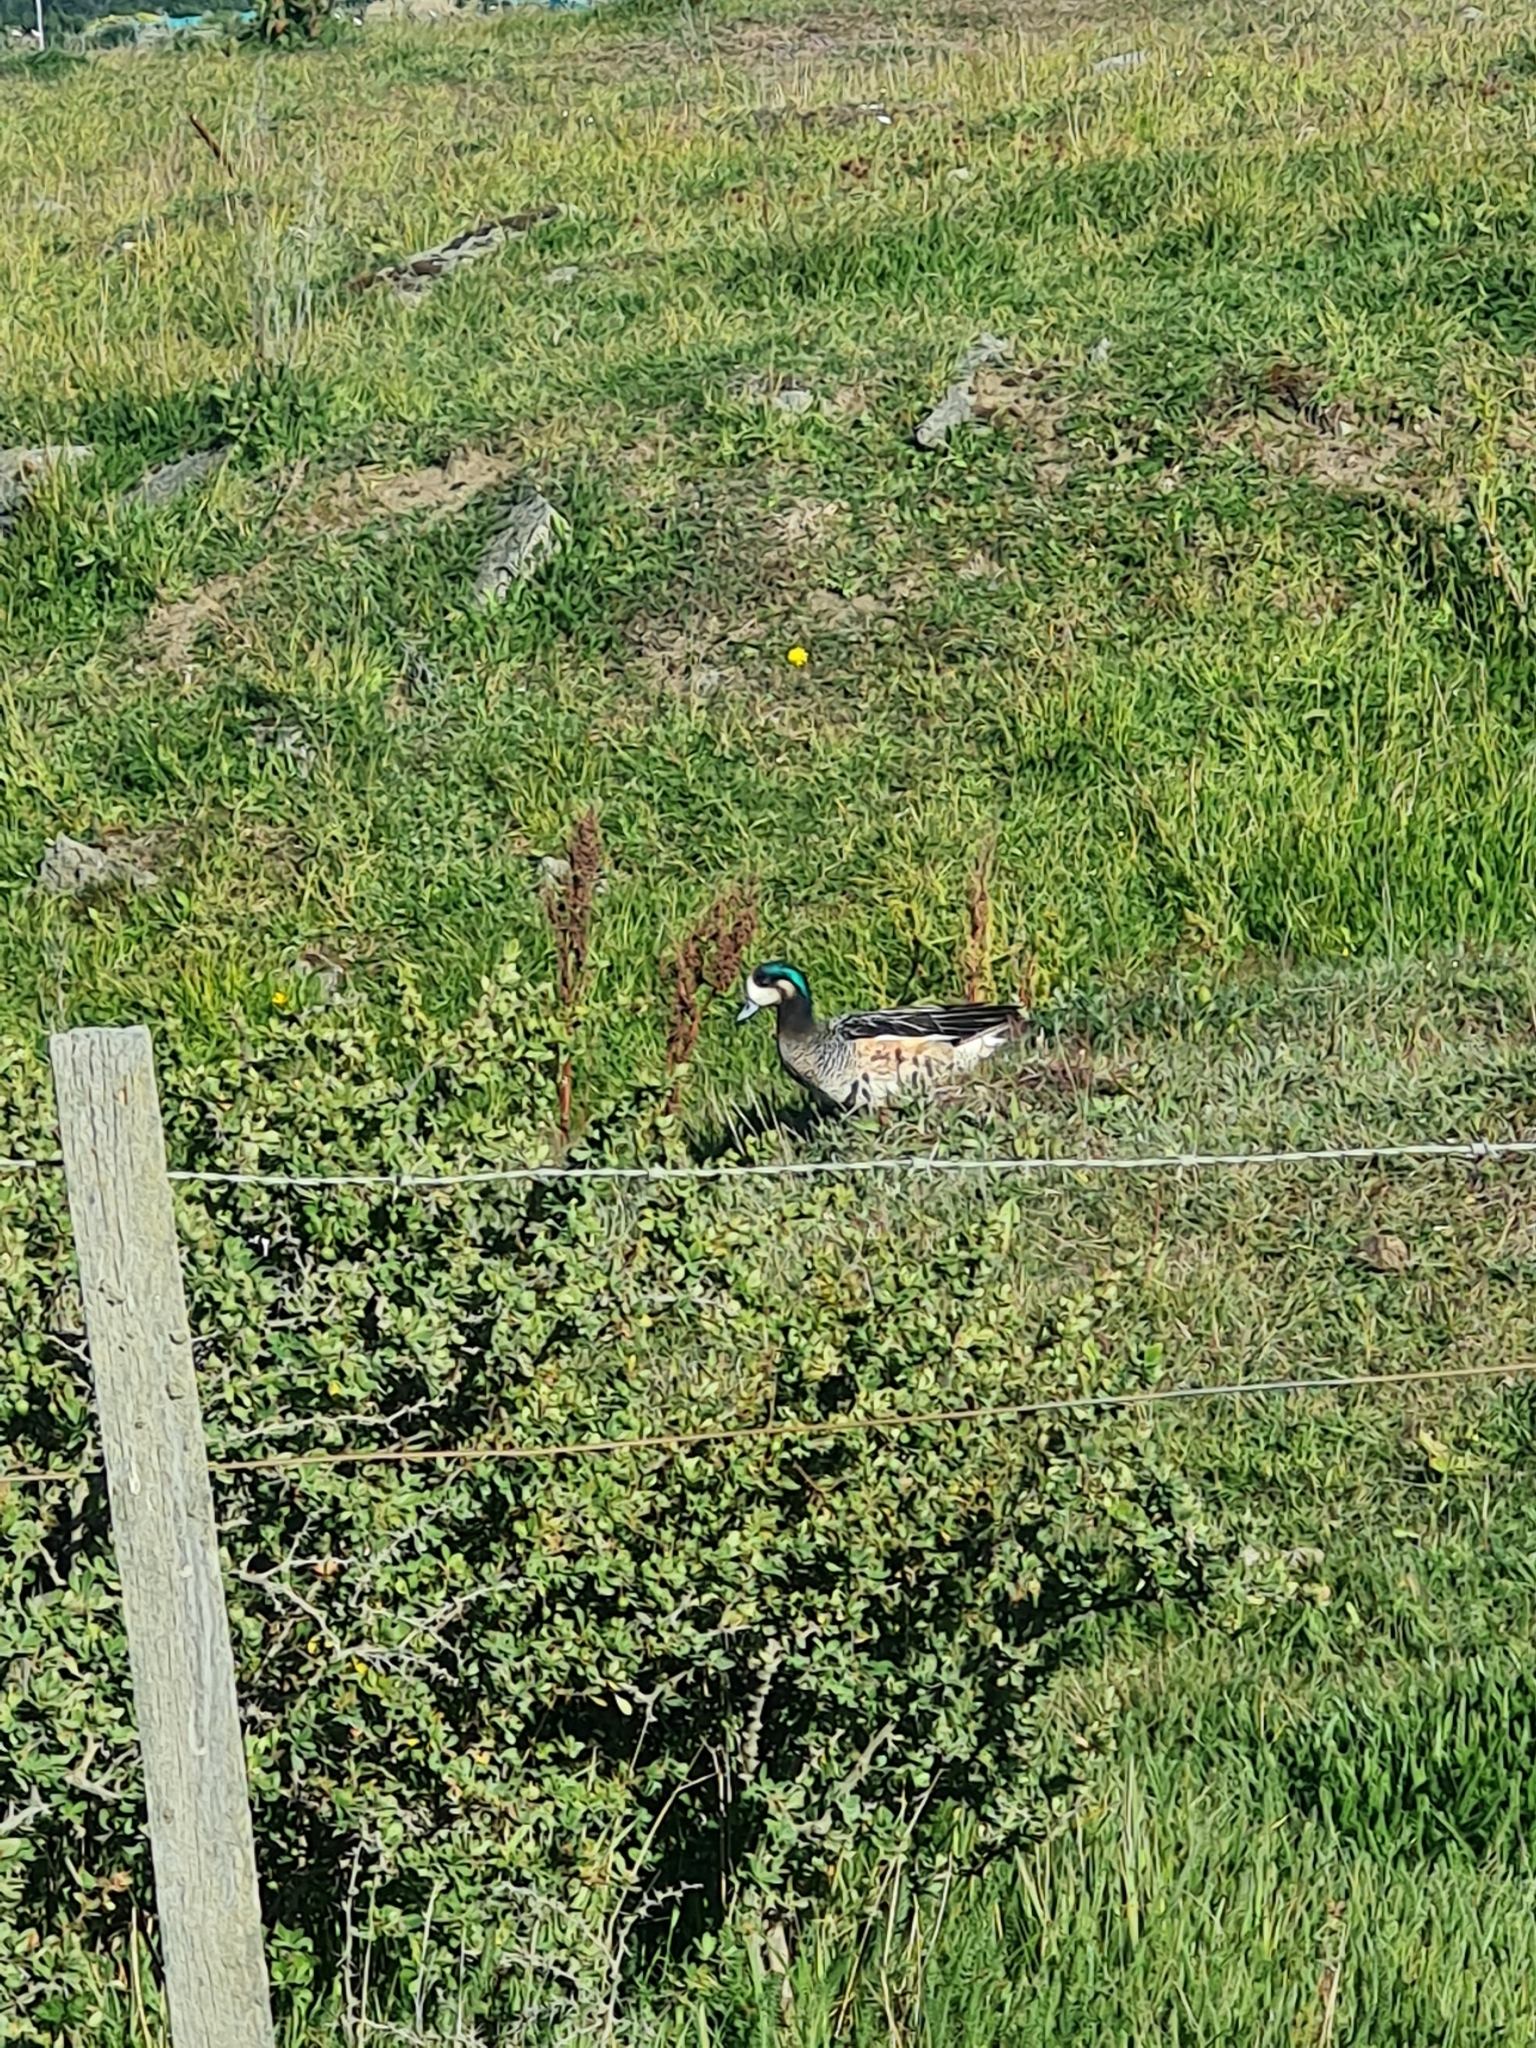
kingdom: Animalia
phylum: Chordata
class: Aves
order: Anseriformes
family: Anatidae
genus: Mareca
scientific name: Mareca sibilatrix
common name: Chiloe wigeon
